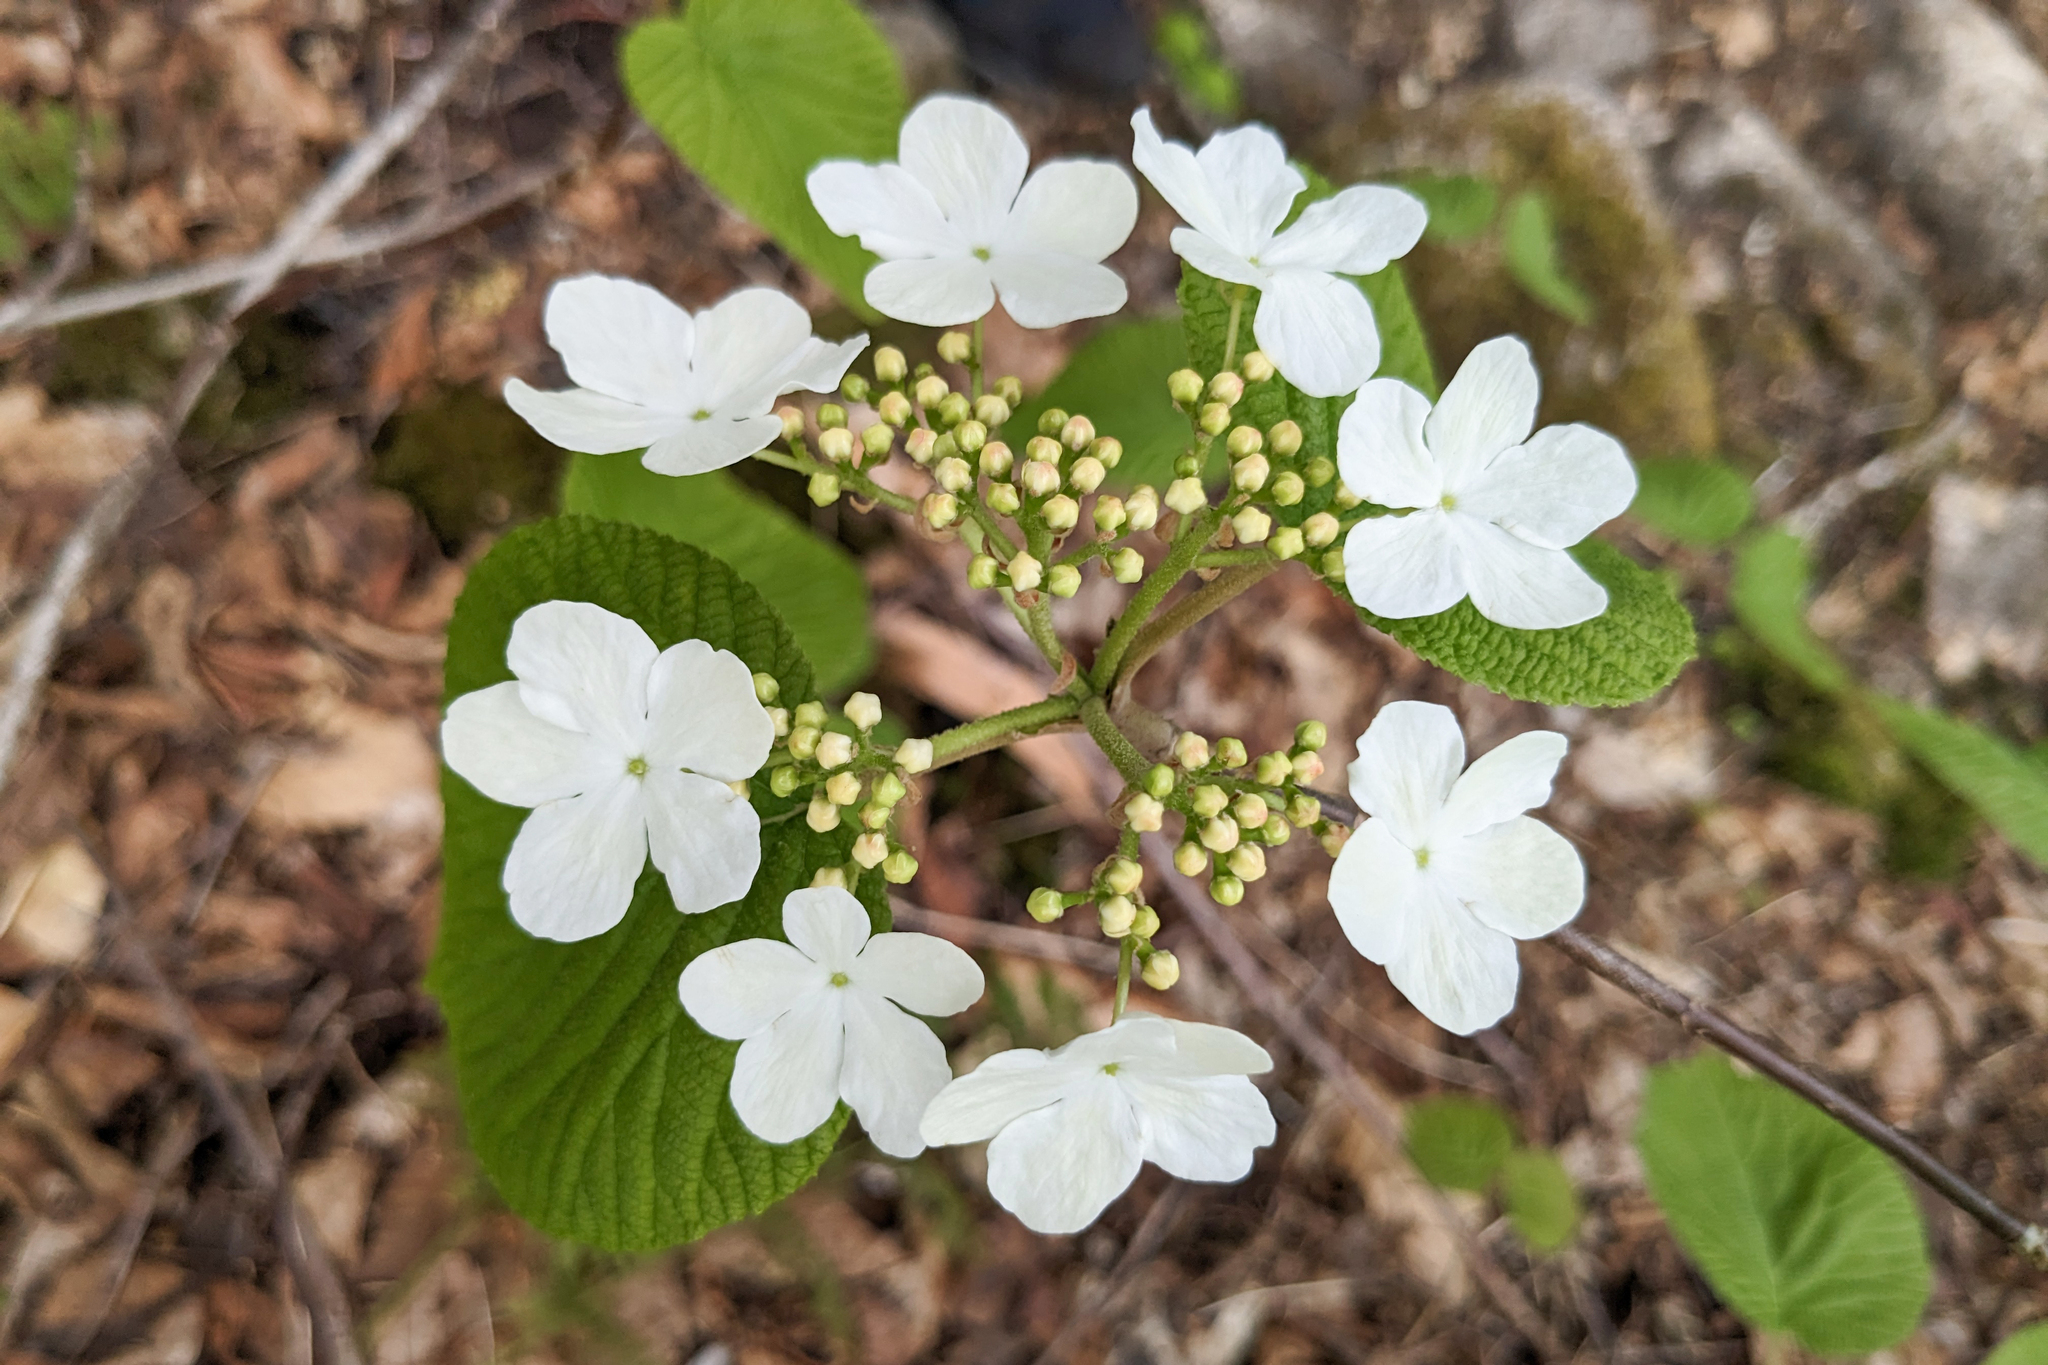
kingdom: Plantae
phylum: Tracheophyta
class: Magnoliopsida
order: Dipsacales
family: Viburnaceae
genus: Viburnum
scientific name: Viburnum lantanoides
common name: Hobblebush
